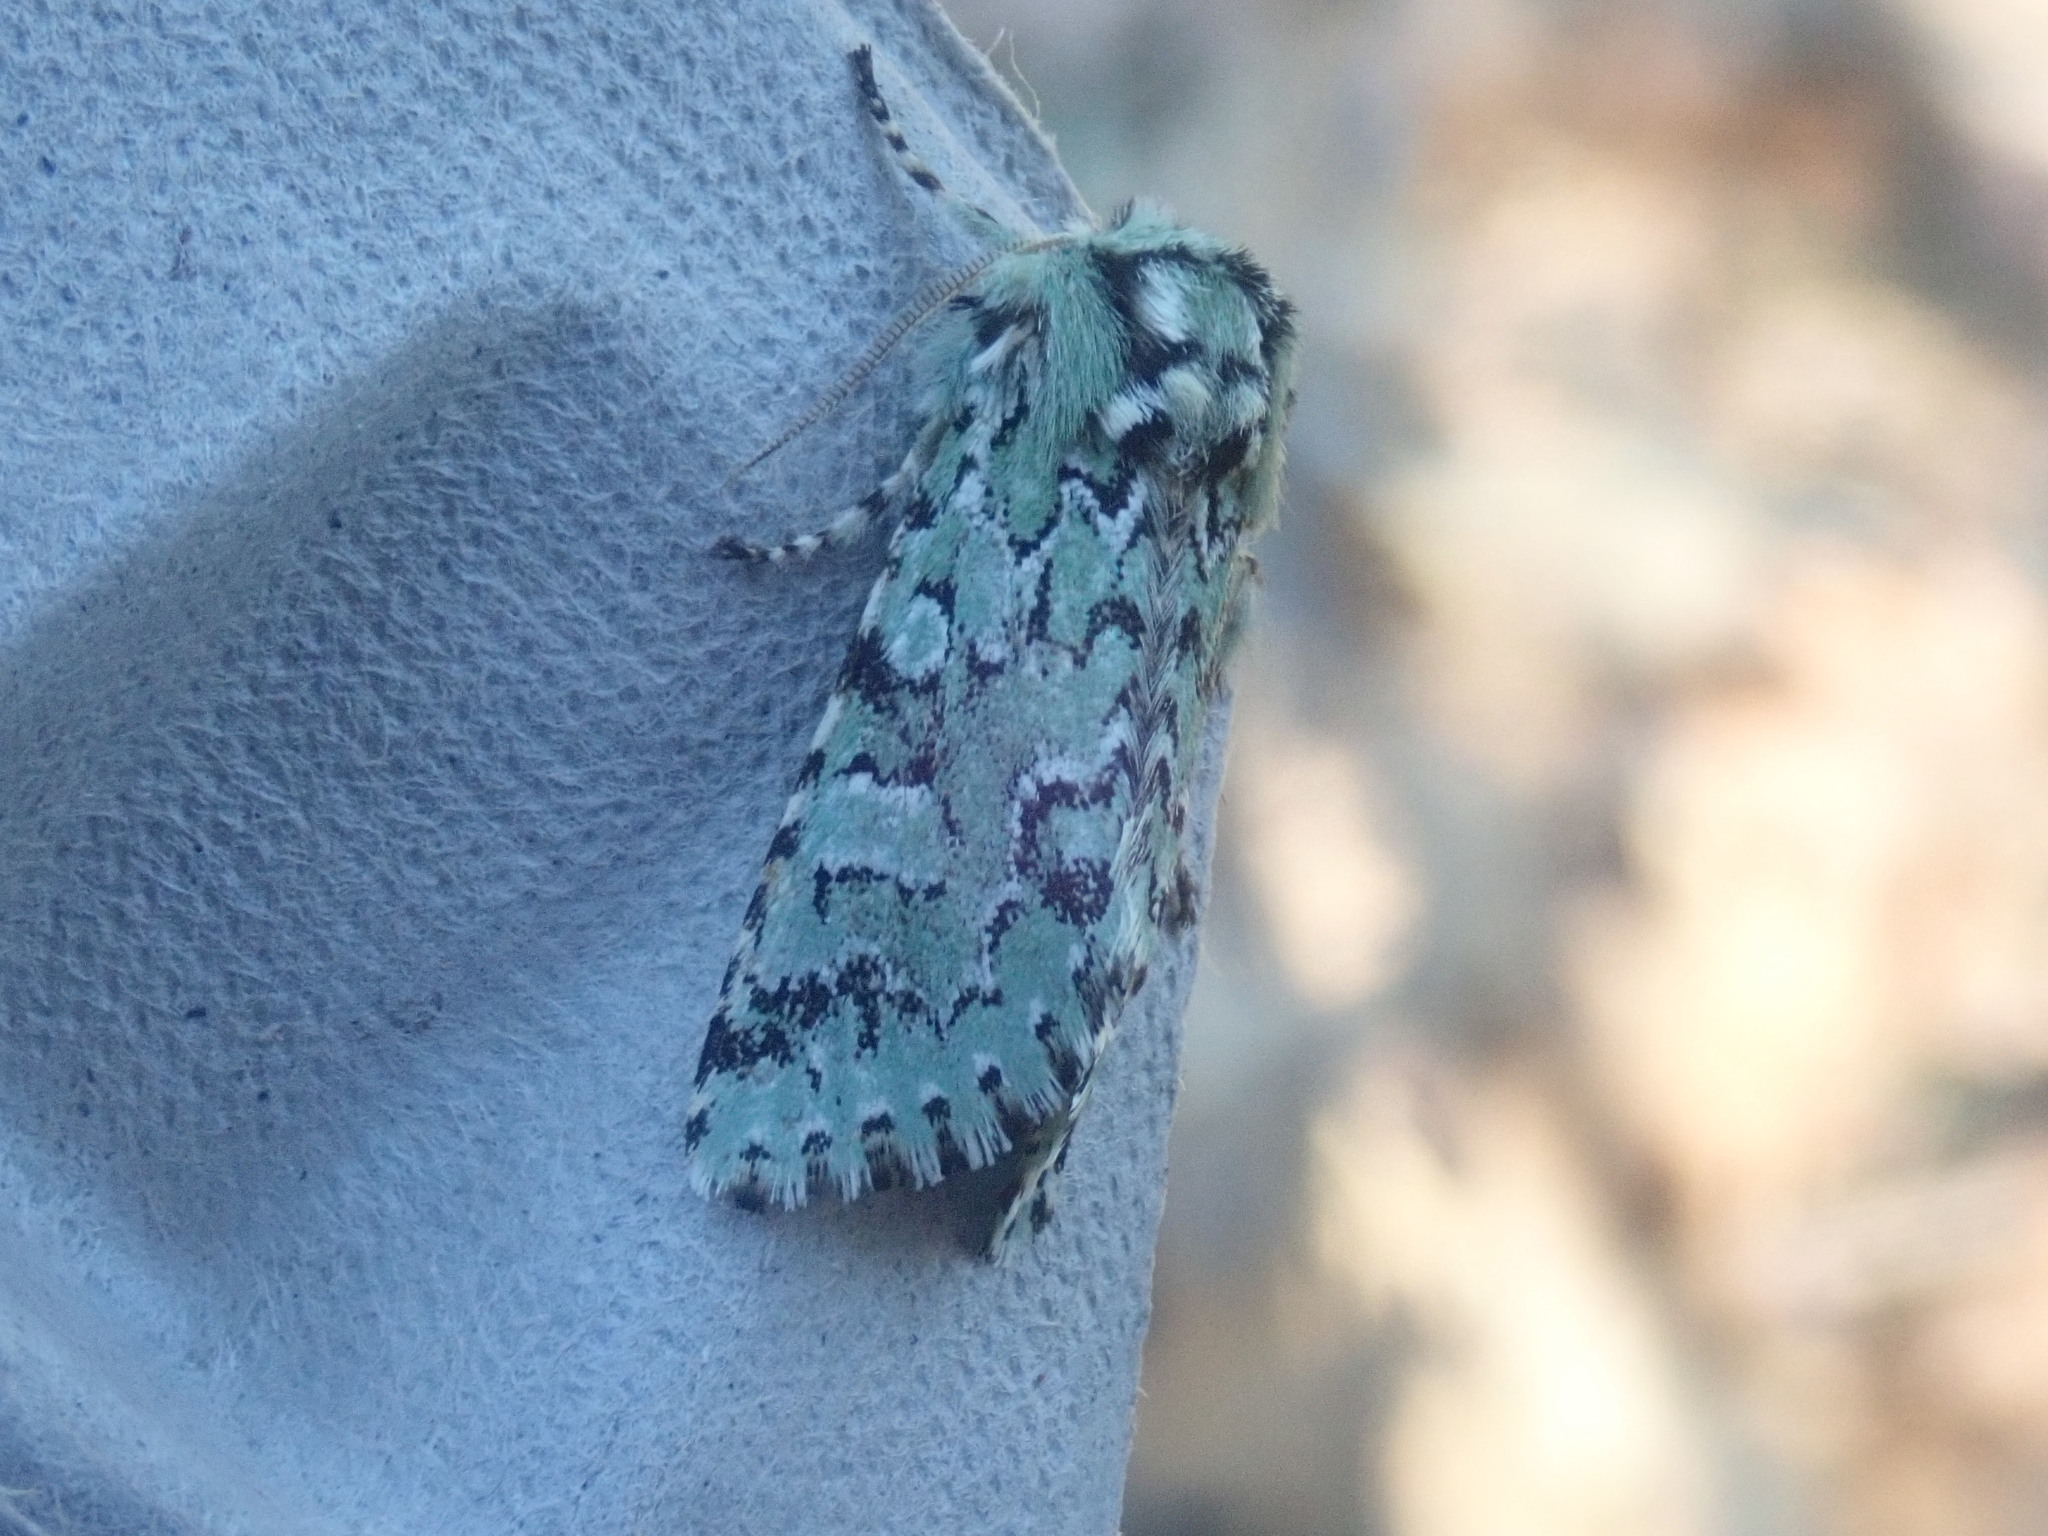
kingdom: Animalia
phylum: Arthropoda
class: Insecta
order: Lepidoptera
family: Noctuidae
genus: Feralia
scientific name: Feralia jocosa
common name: Joker
